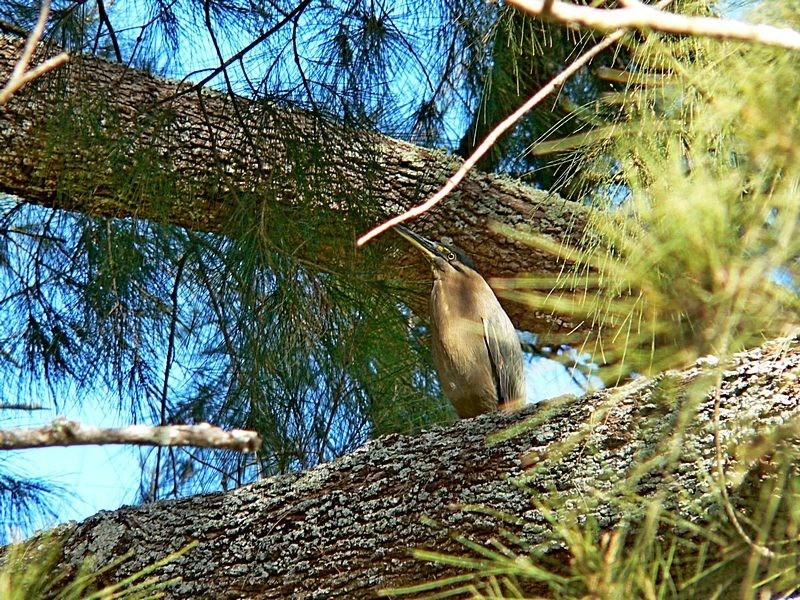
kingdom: Animalia
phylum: Chordata
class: Aves
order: Pelecaniformes
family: Ardeidae
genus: Butorides
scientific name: Butorides striata
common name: Striated heron
